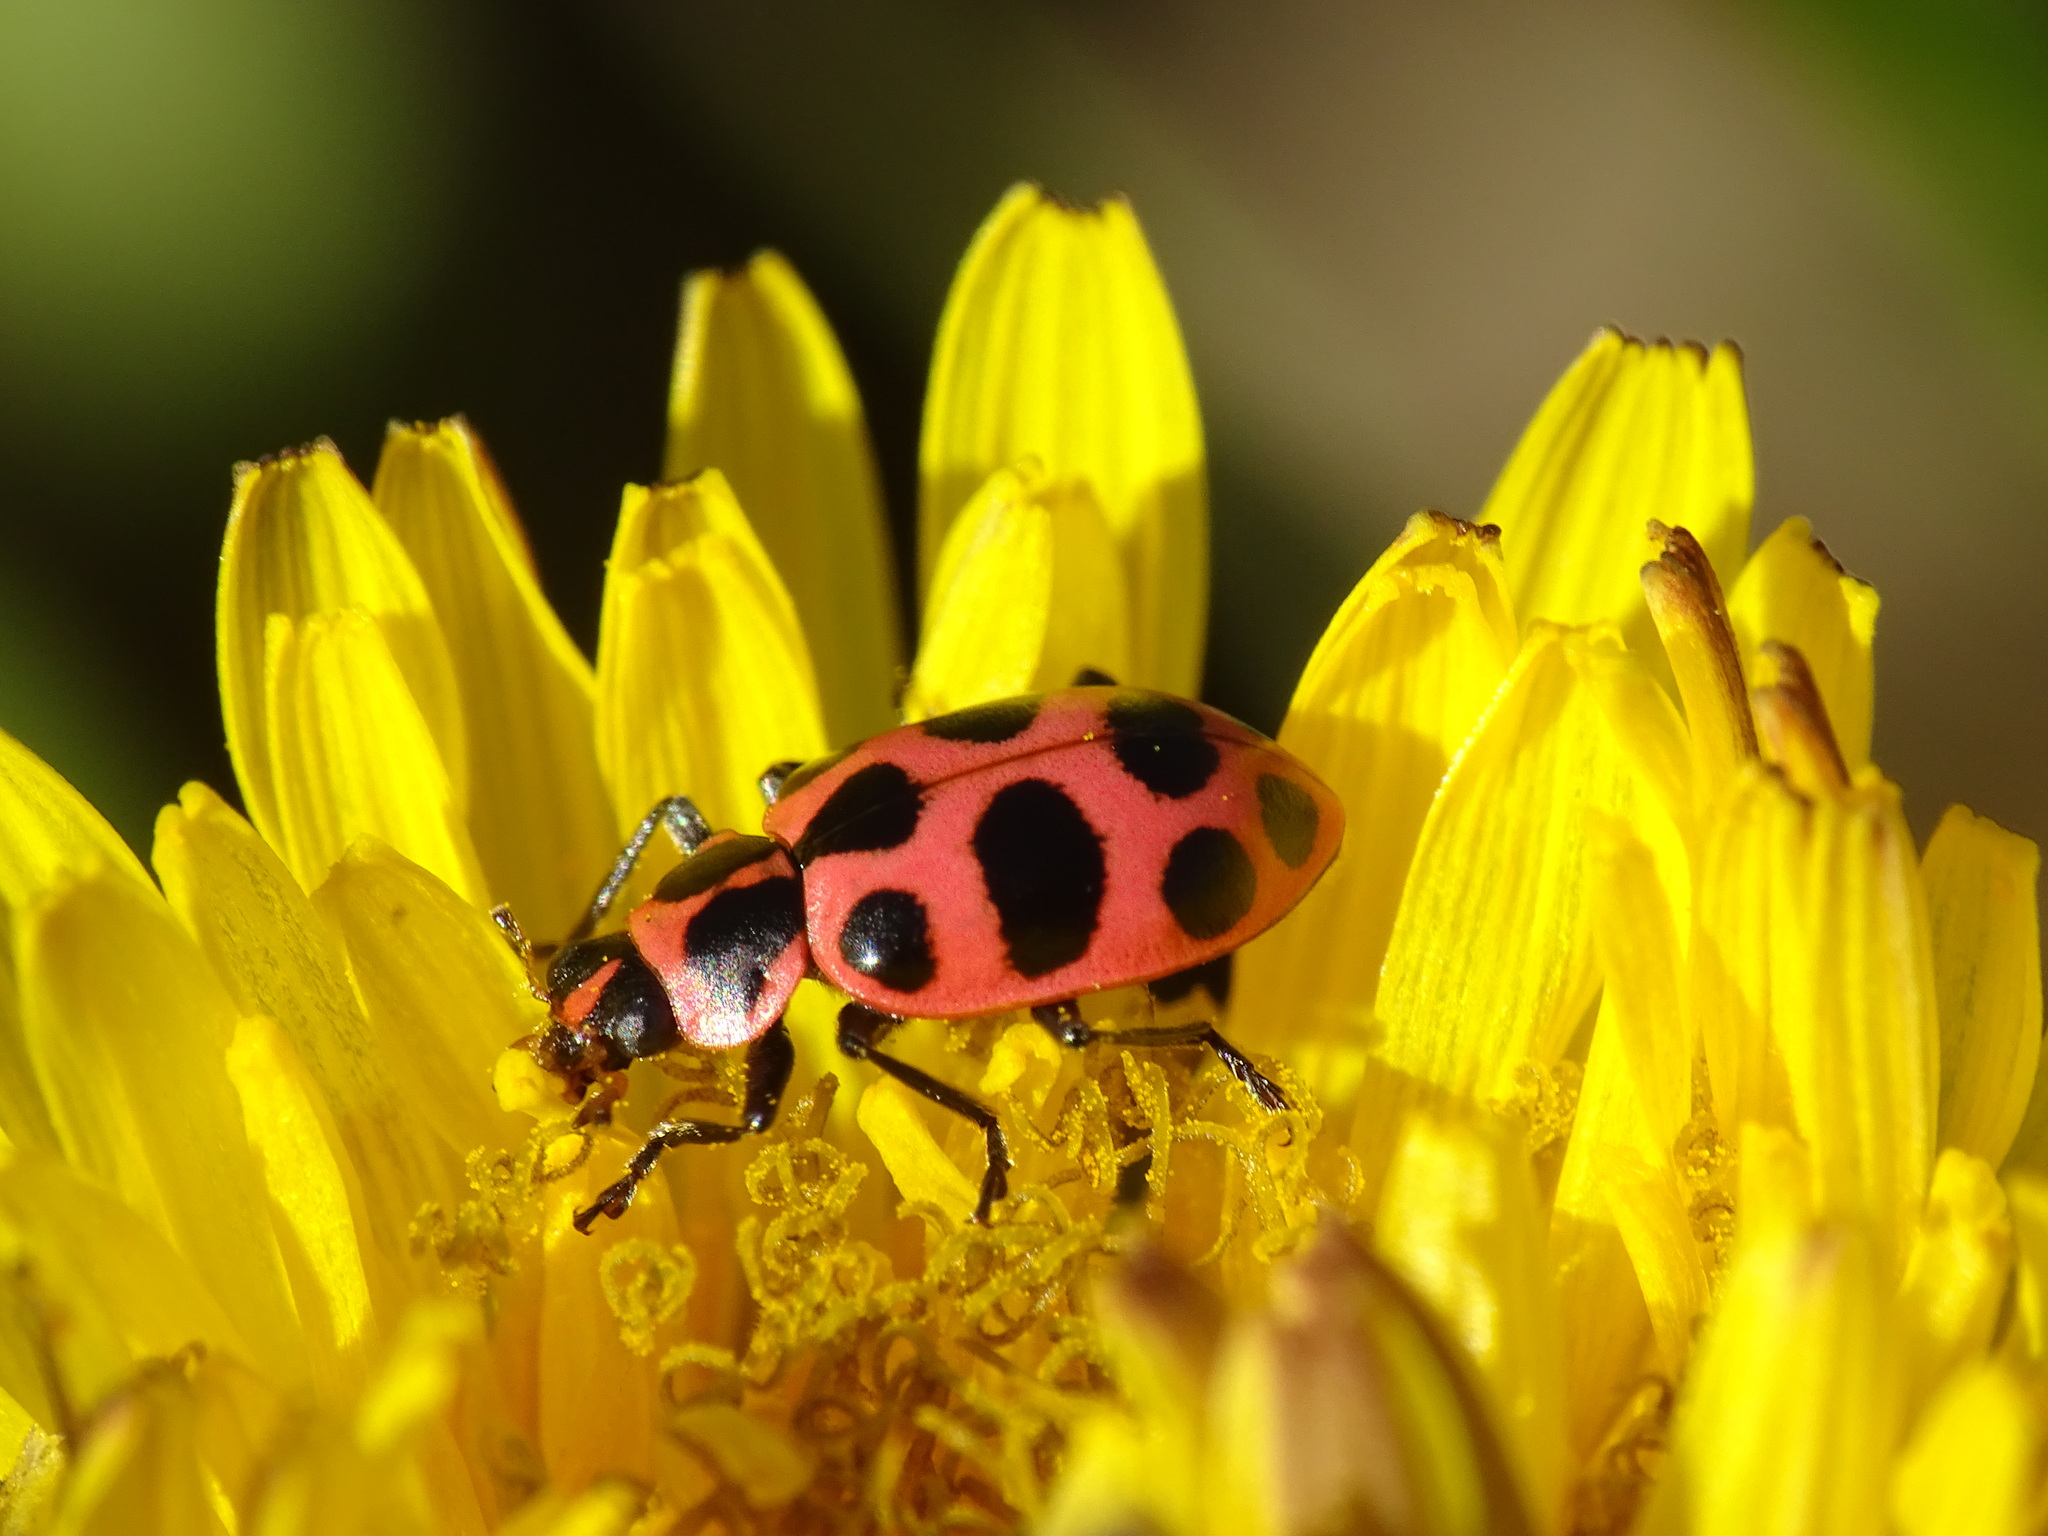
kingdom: Animalia
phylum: Arthropoda
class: Insecta
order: Coleoptera
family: Coccinellidae
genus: Coleomegilla
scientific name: Coleomegilla maculata
